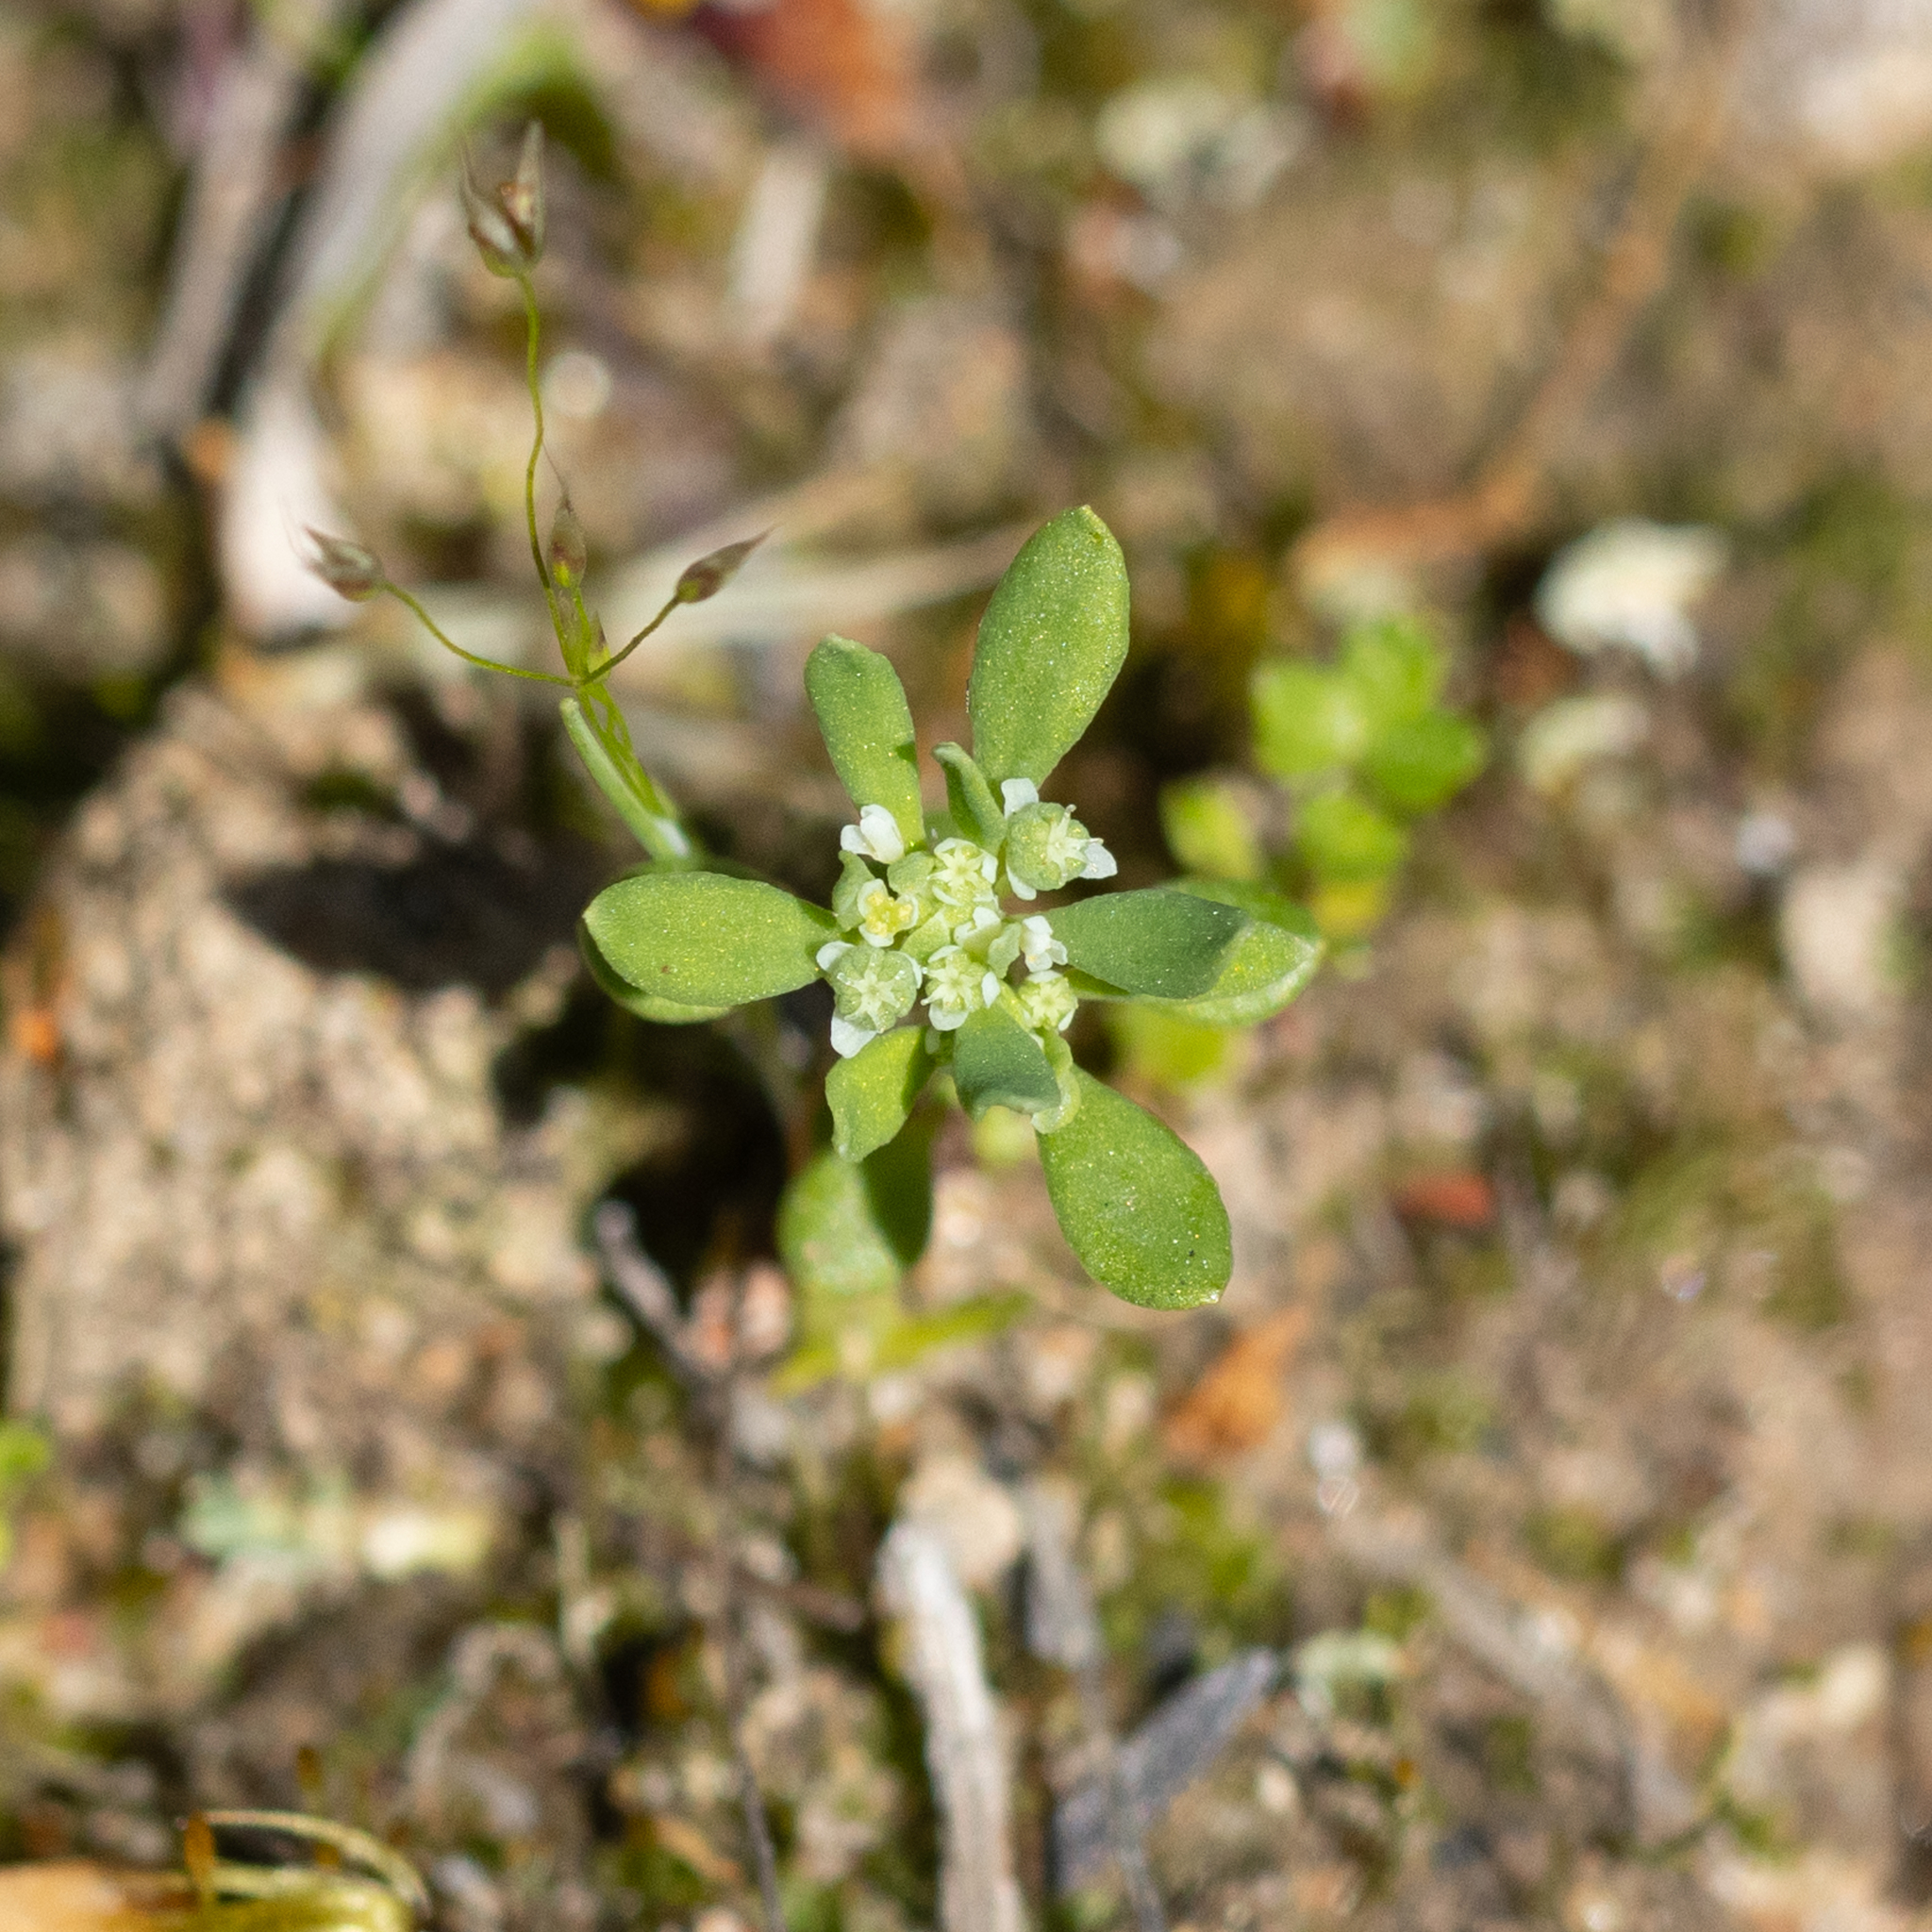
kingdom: Plantae
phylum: Tracheophyta
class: Magnoliopsida
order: Malpighiales
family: Phyllanthaceae
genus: Poranthera
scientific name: Poranthera microphylla
